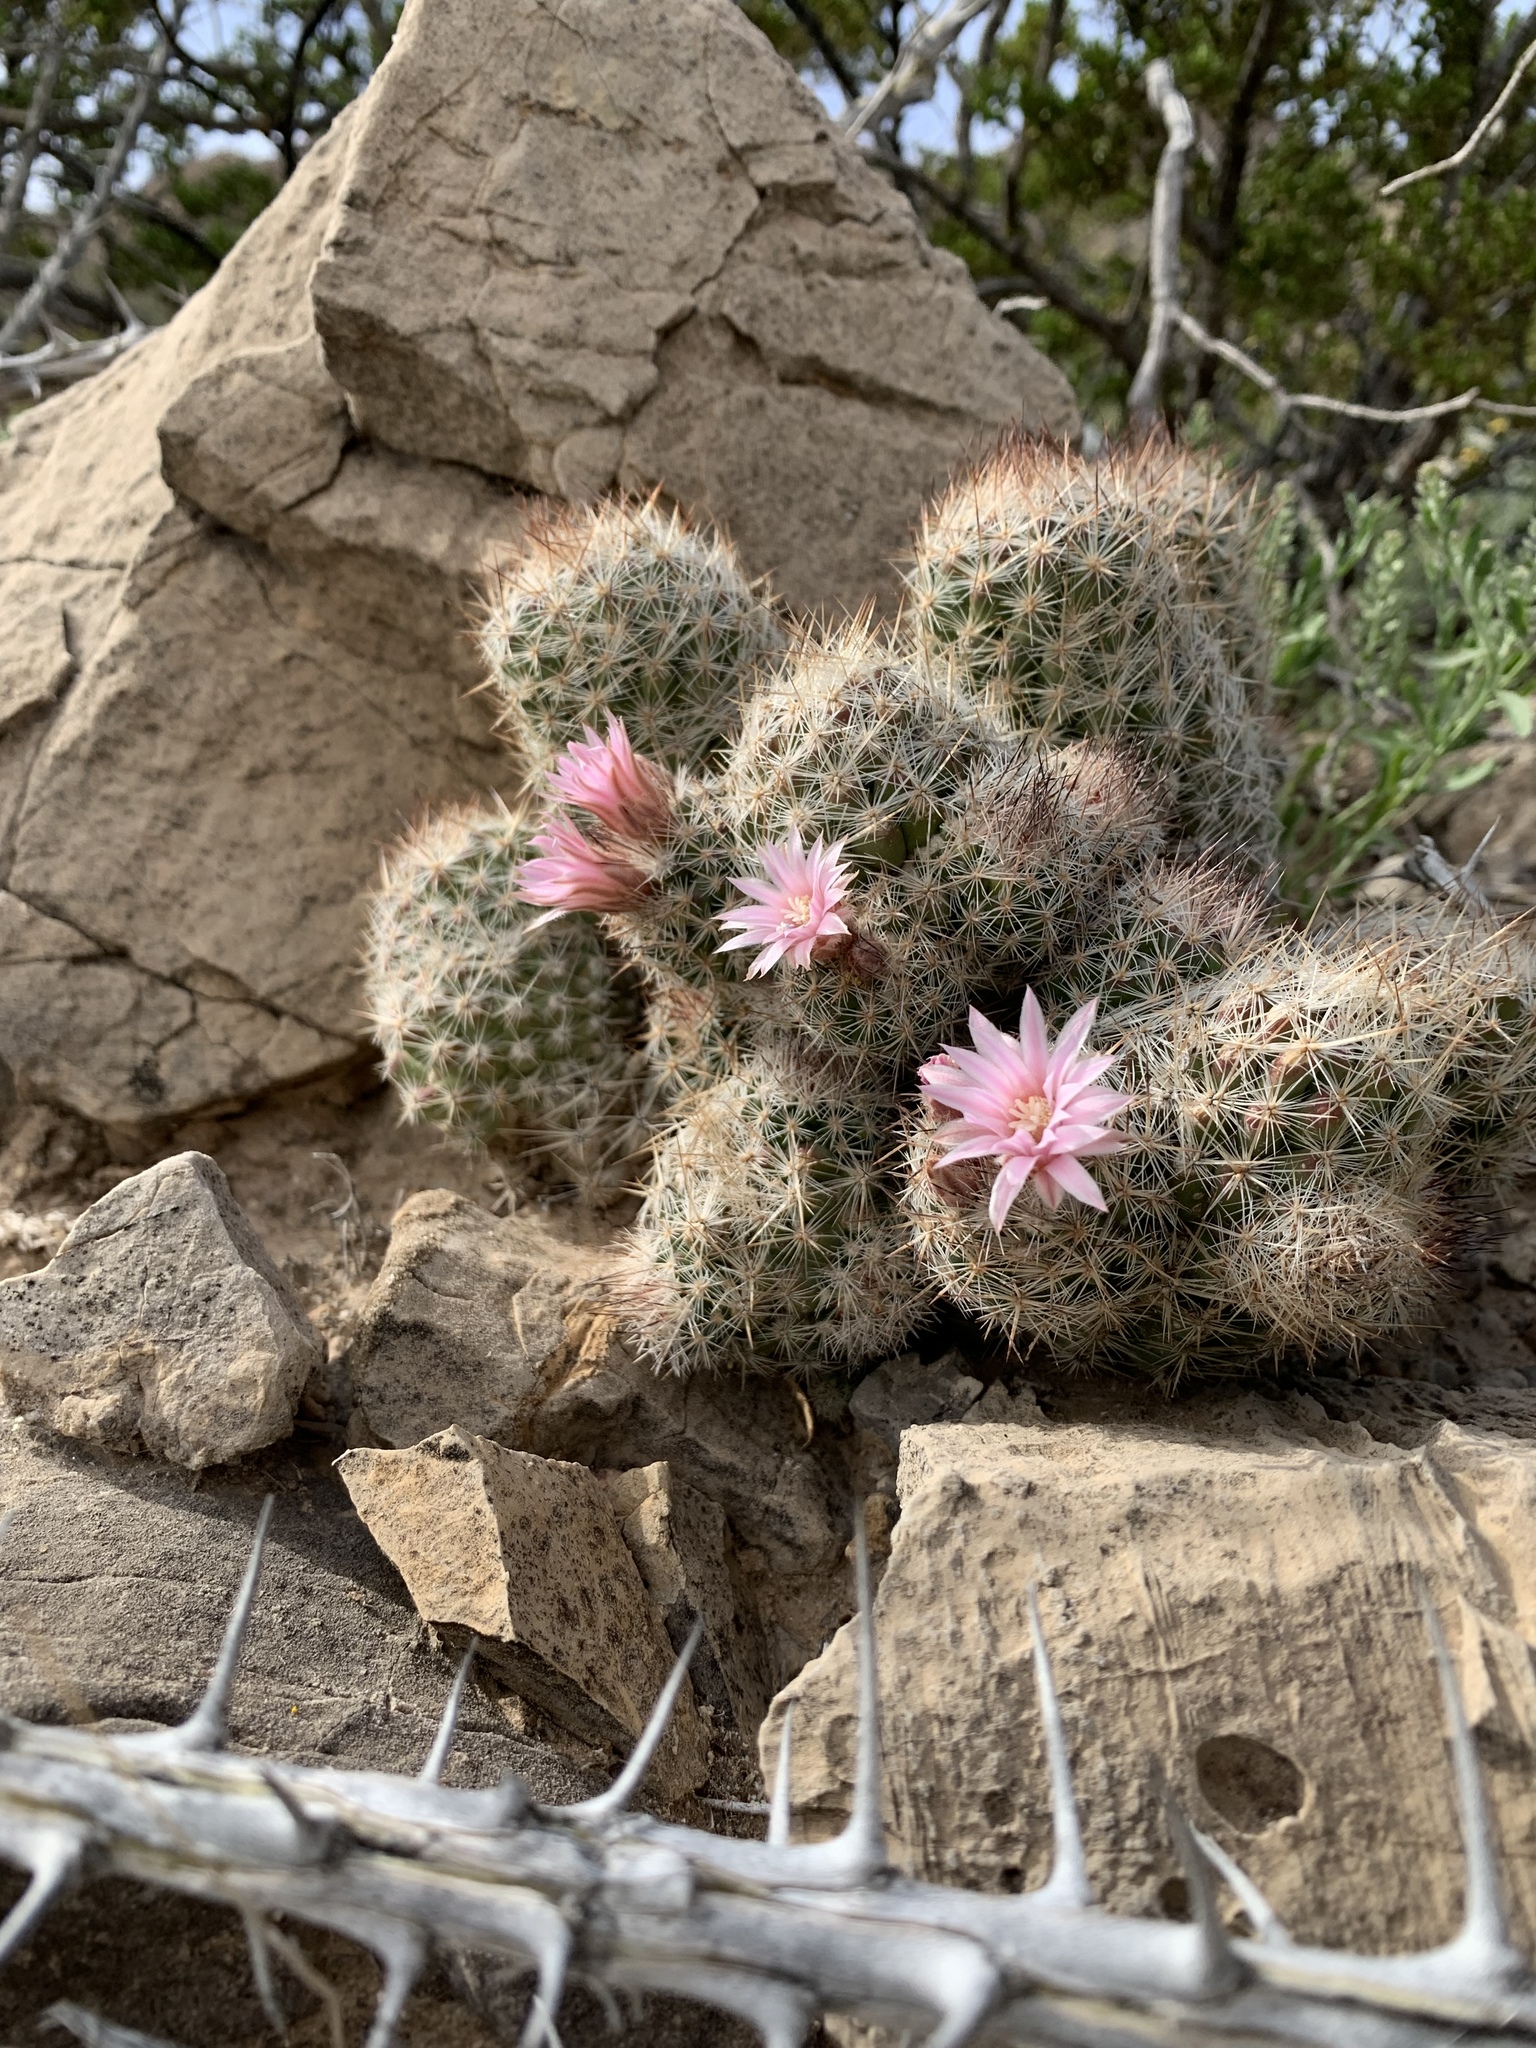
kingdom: Plantae
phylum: Tracheophyta
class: Magnoliopsida
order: Caryophyllales
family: Cactaceae
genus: Pelecyphora
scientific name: Pelecyphora tuberculosa
